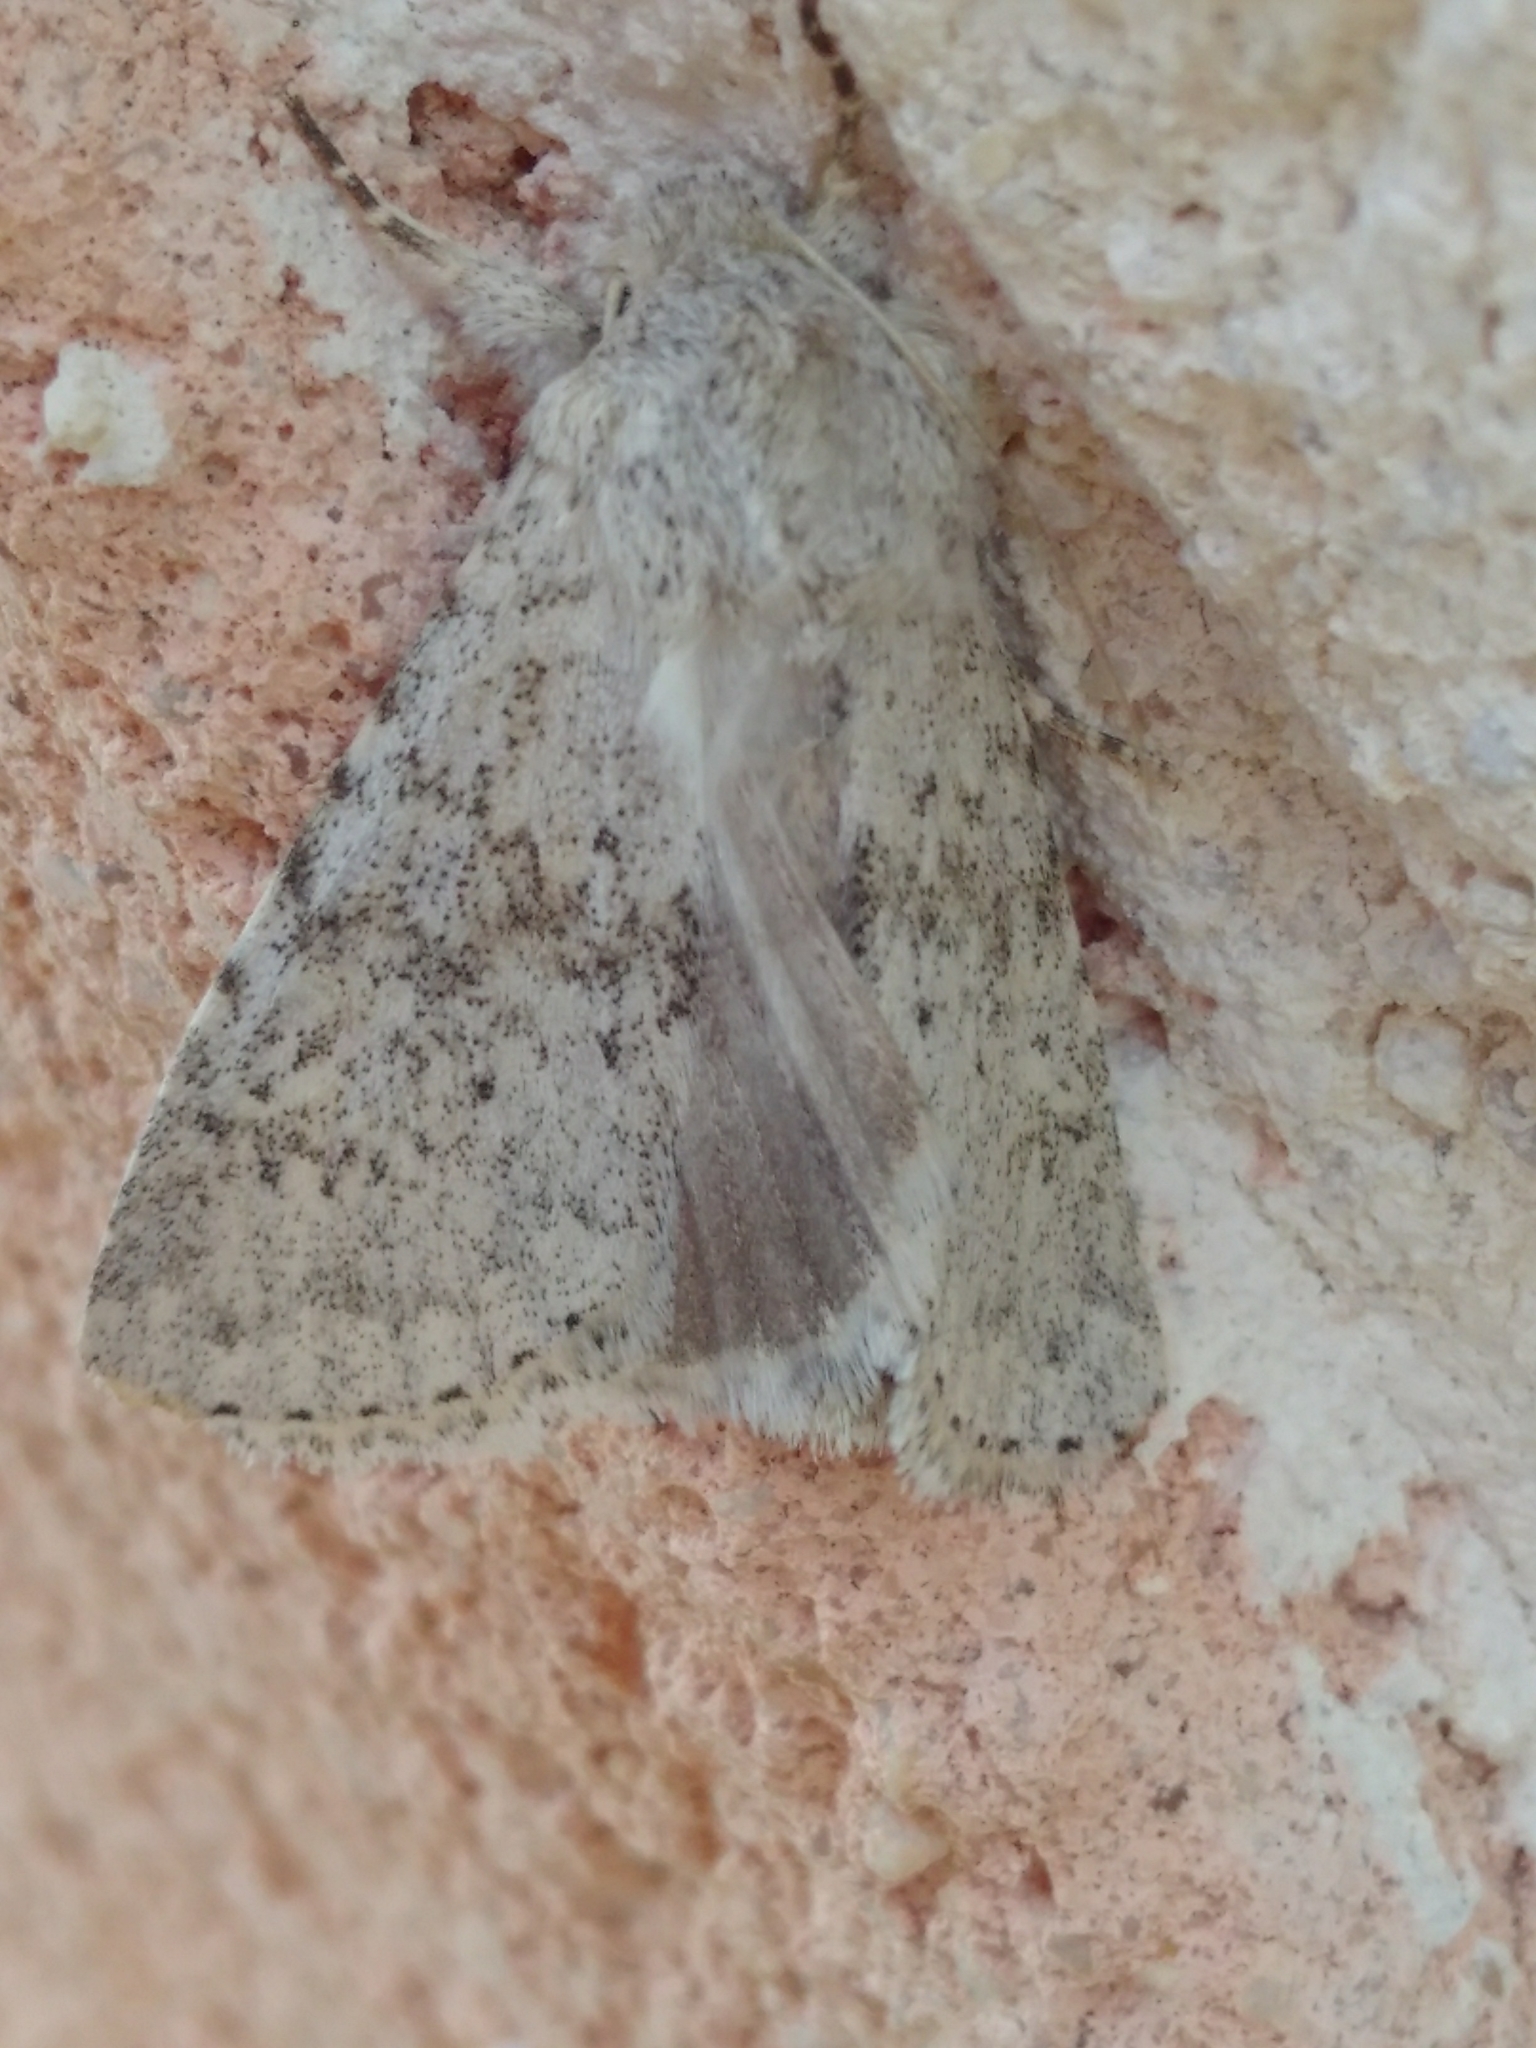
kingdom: Animalia
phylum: Arthropoda
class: Insecta
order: Lepidoptera
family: Noctuidae
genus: Aporophyla
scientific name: Aporophyla canescens
